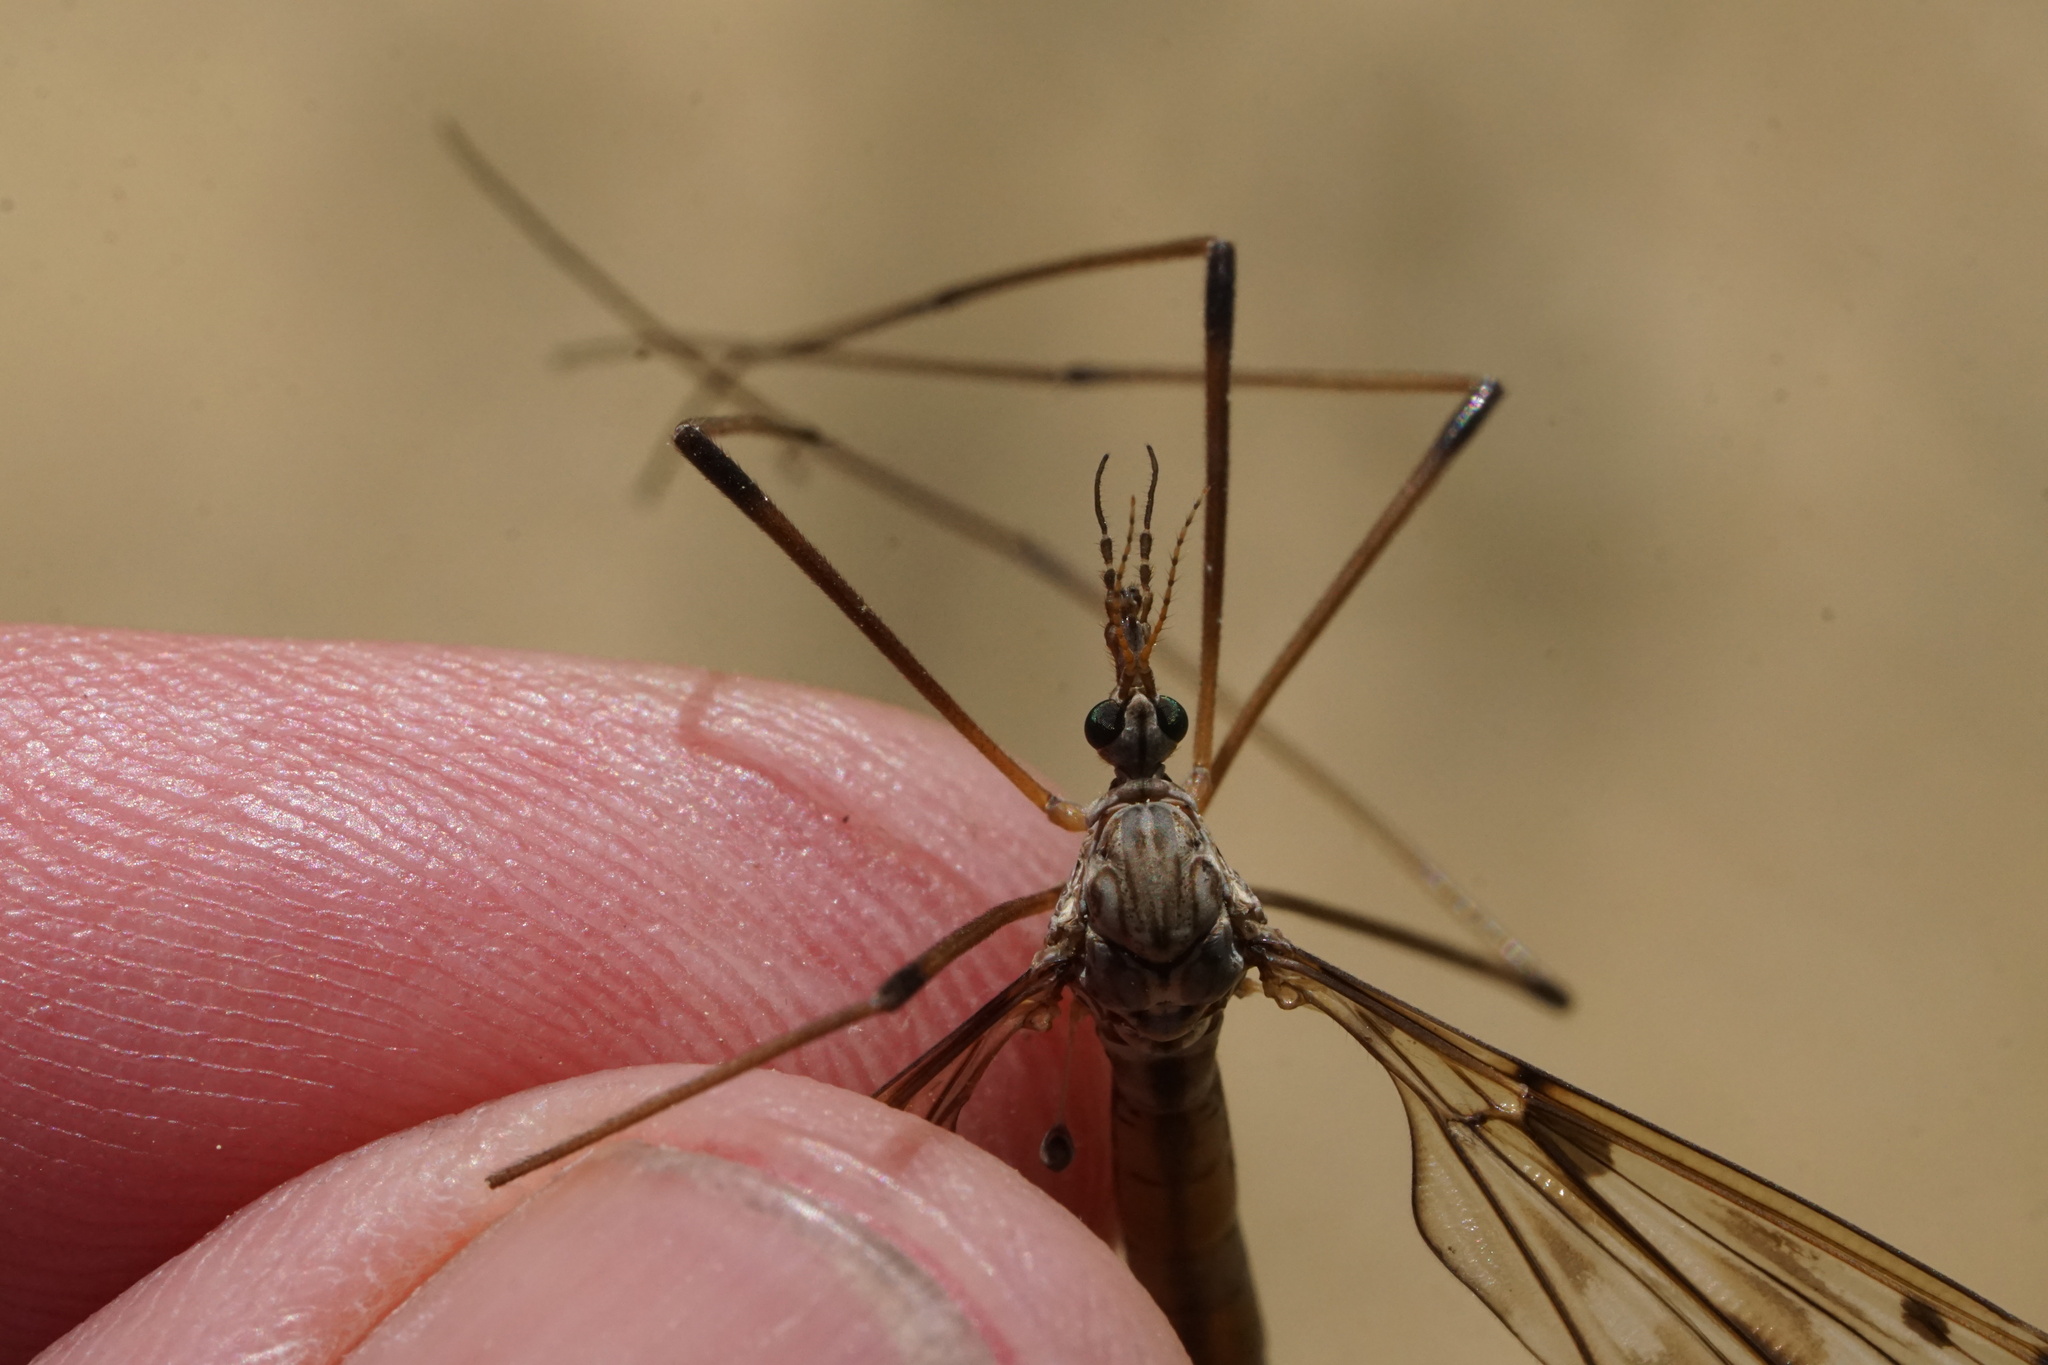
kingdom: Animalia
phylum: Arthropoda
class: Insecta
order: Diptera
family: Tipulidae
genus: Tipula
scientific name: Tipula longiventris
